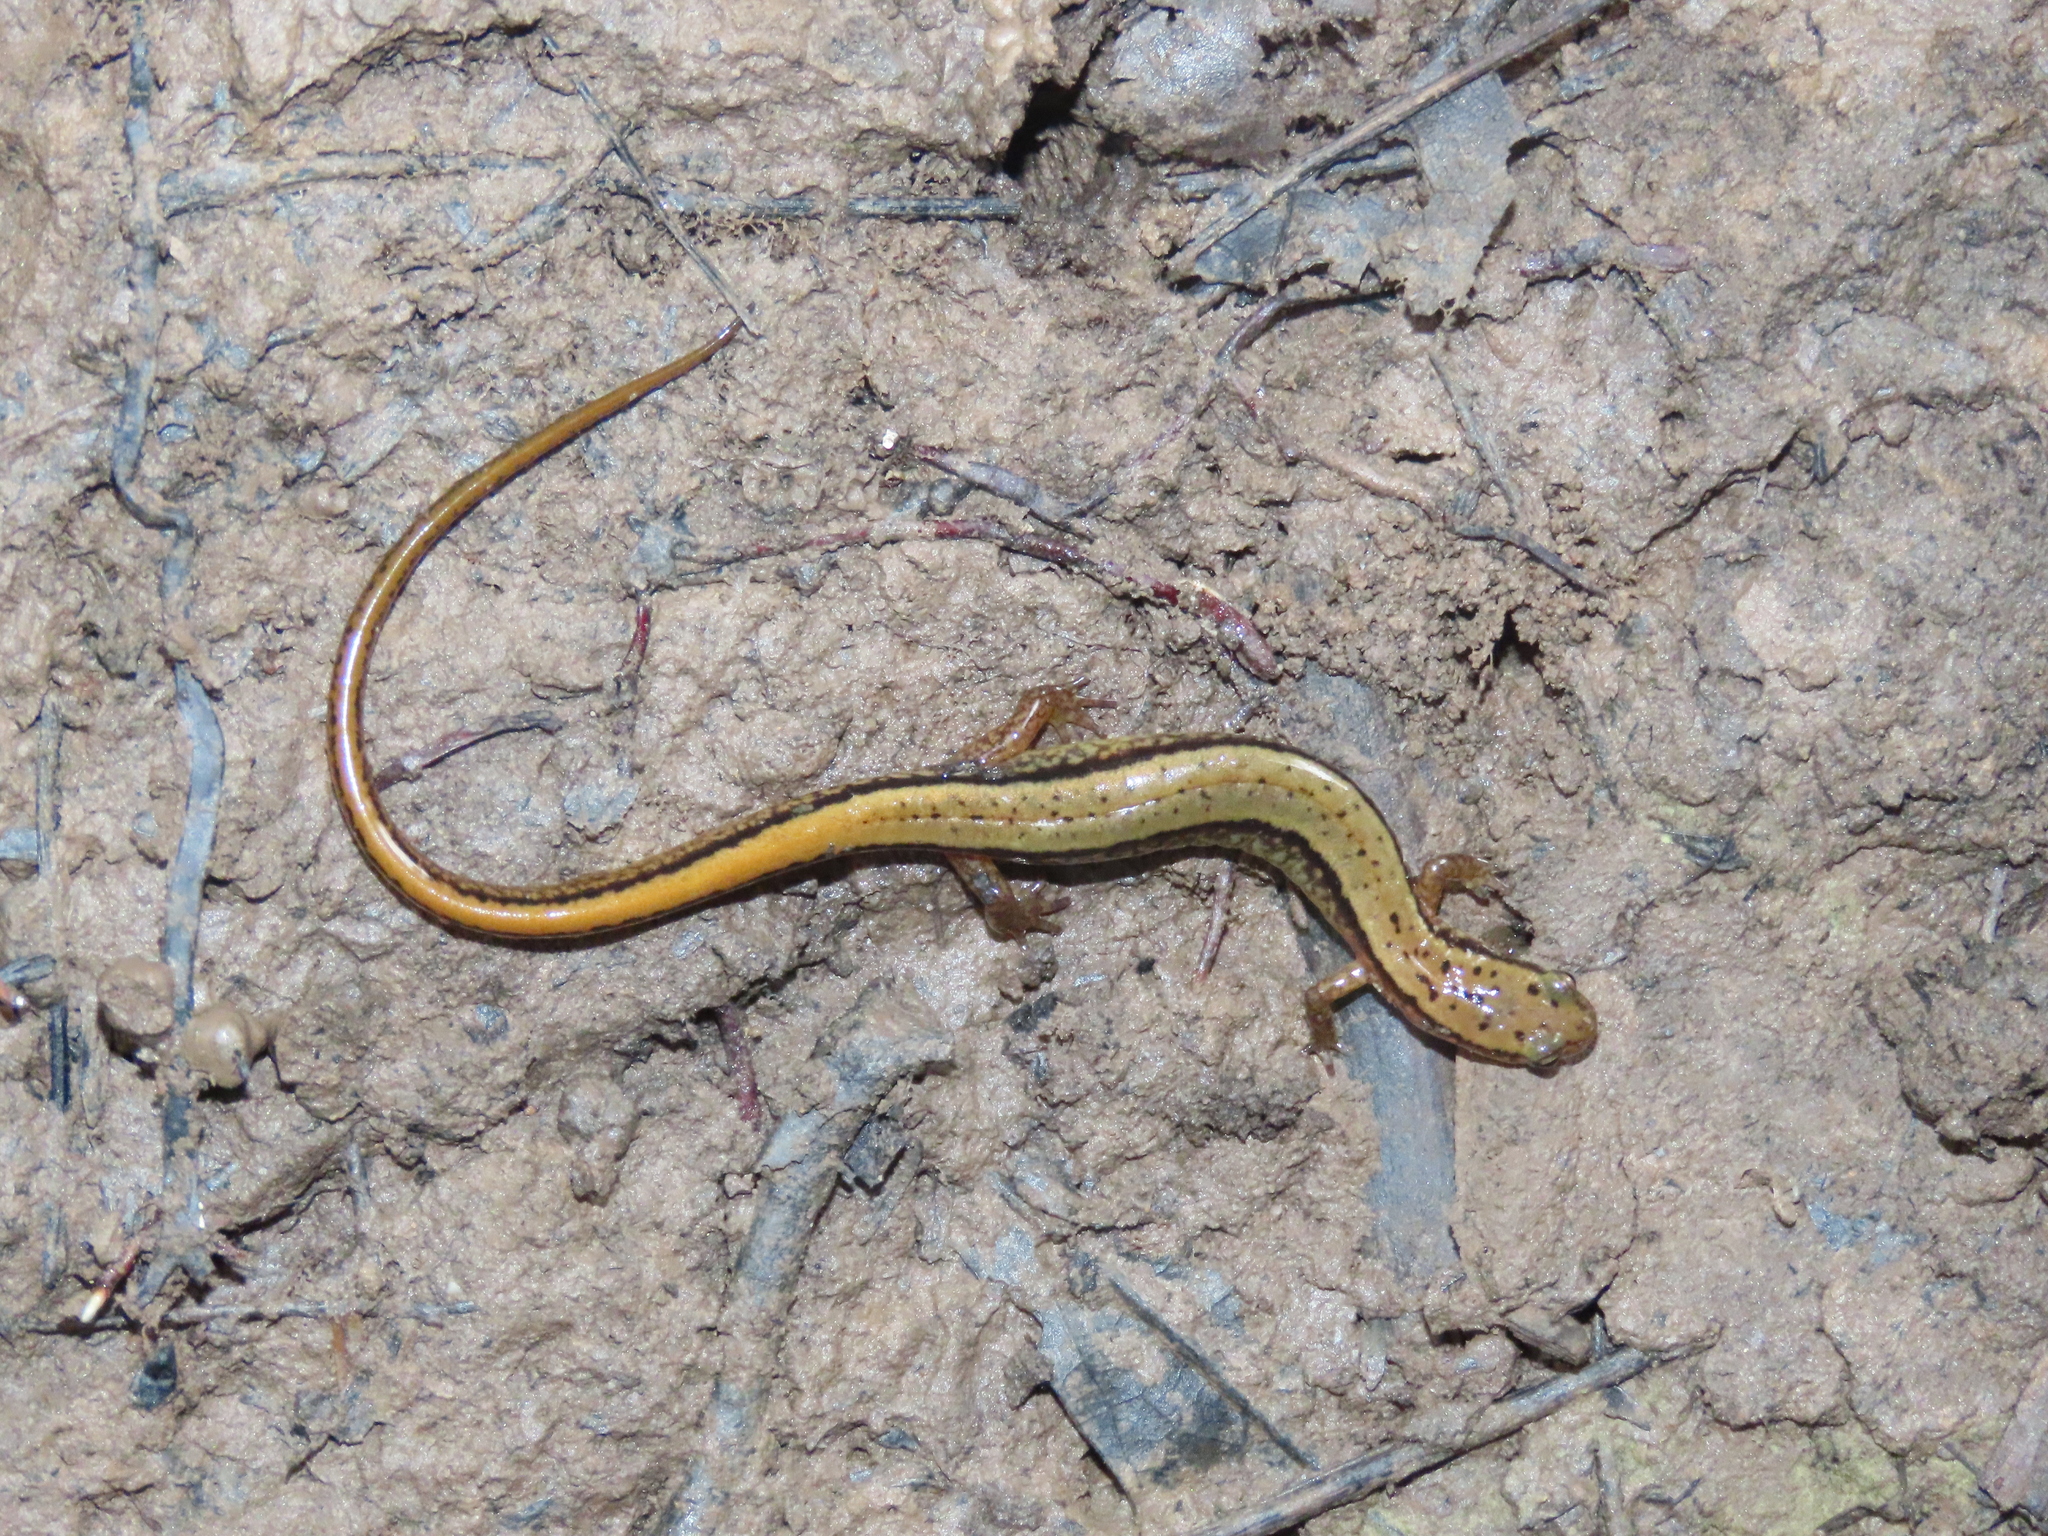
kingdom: Animalia
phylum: Chordata
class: Amphibia
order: Caudata
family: Plethodontidae
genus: Eurycea
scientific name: Eurycea bislineata
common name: Northern two-lined salamander
